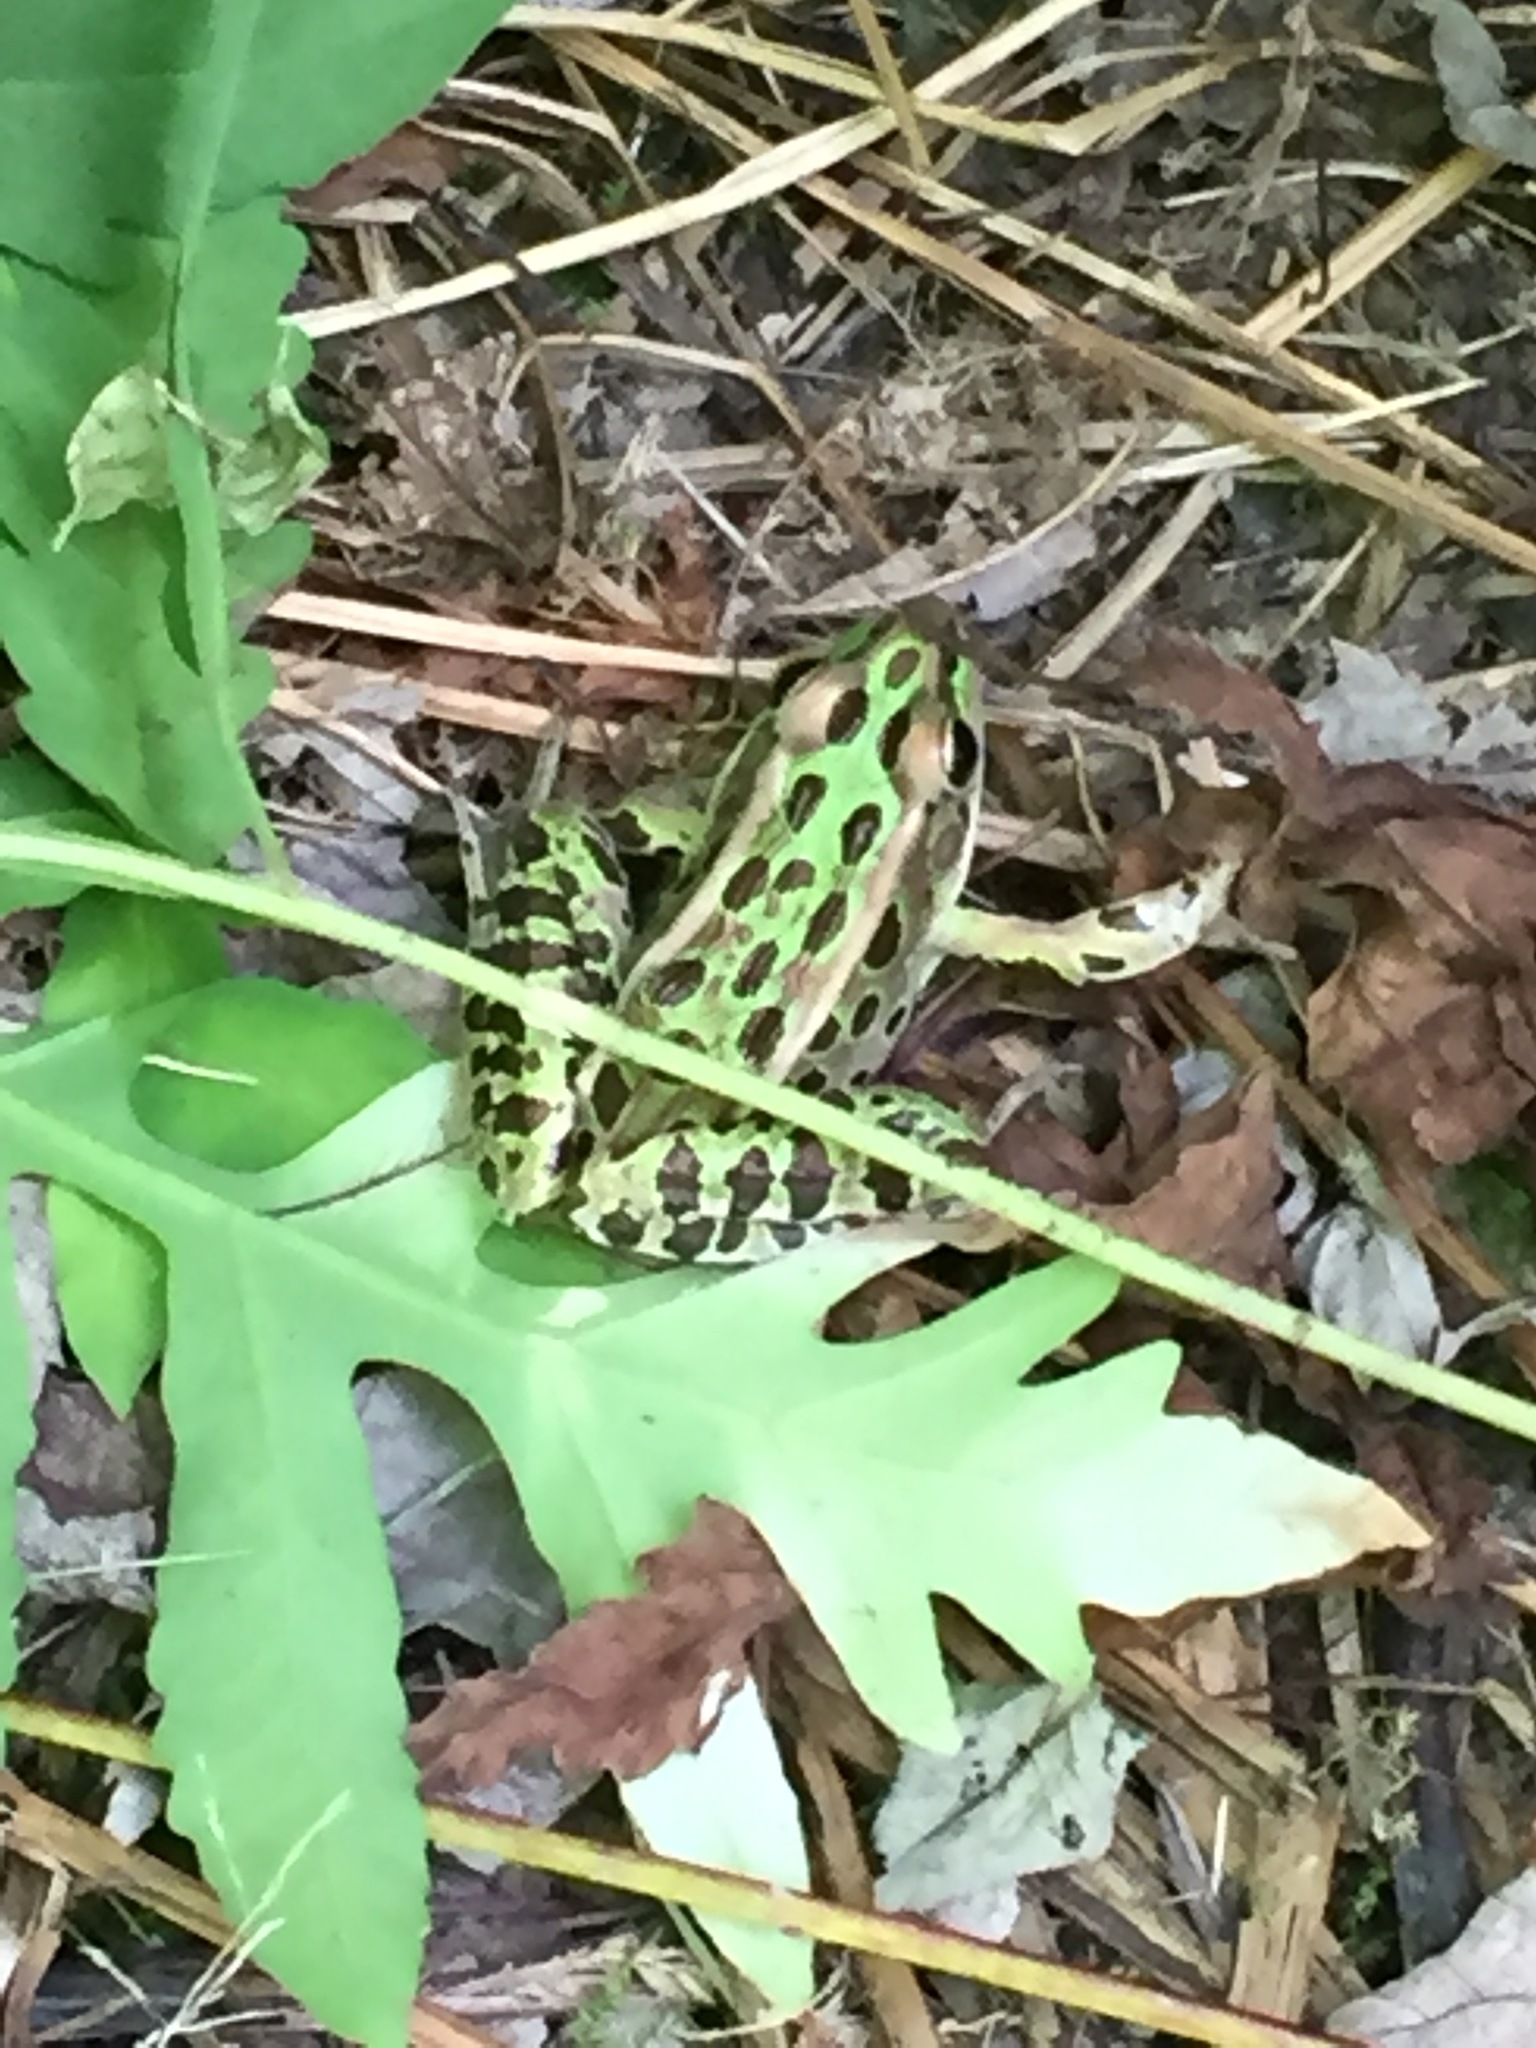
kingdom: Animalia
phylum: Chordata
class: Amphibia
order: Anura
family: Ranidae
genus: Lithobates
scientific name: Lithobates pipiens
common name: Northern leopard frog
